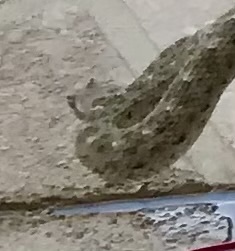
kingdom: Animalia
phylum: Chordata
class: Squamata
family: Viperidae
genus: Crotalus
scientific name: Crotalus cerastes
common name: Sidewinder
